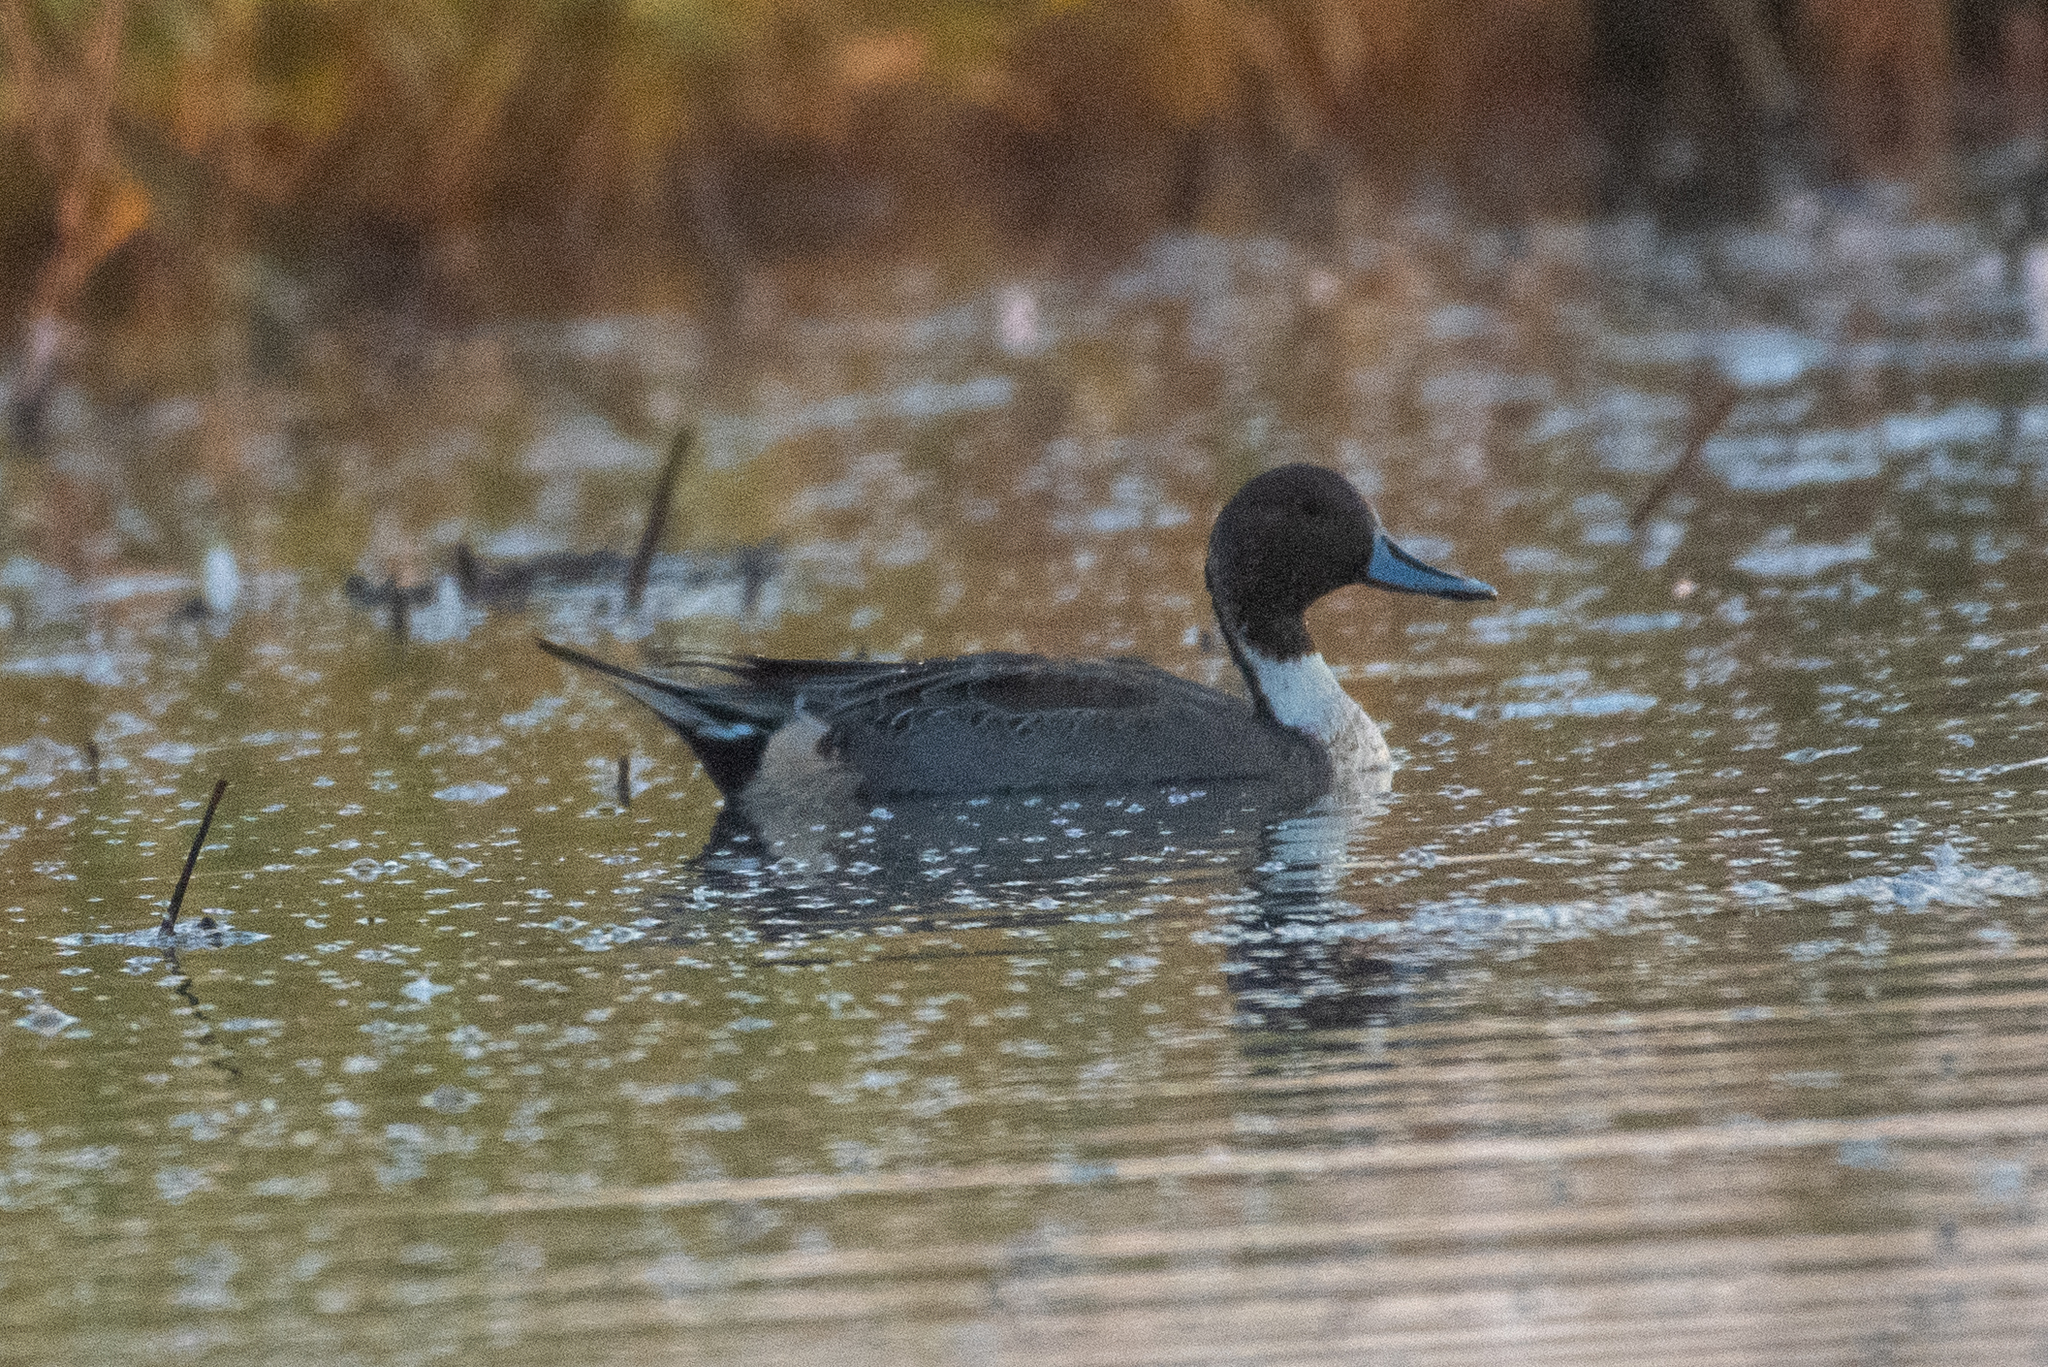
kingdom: Animalia
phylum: Chordata
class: Aves
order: Anseriformes
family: Anatidae
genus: Anas
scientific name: Anas acuta
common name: Northern pintail
